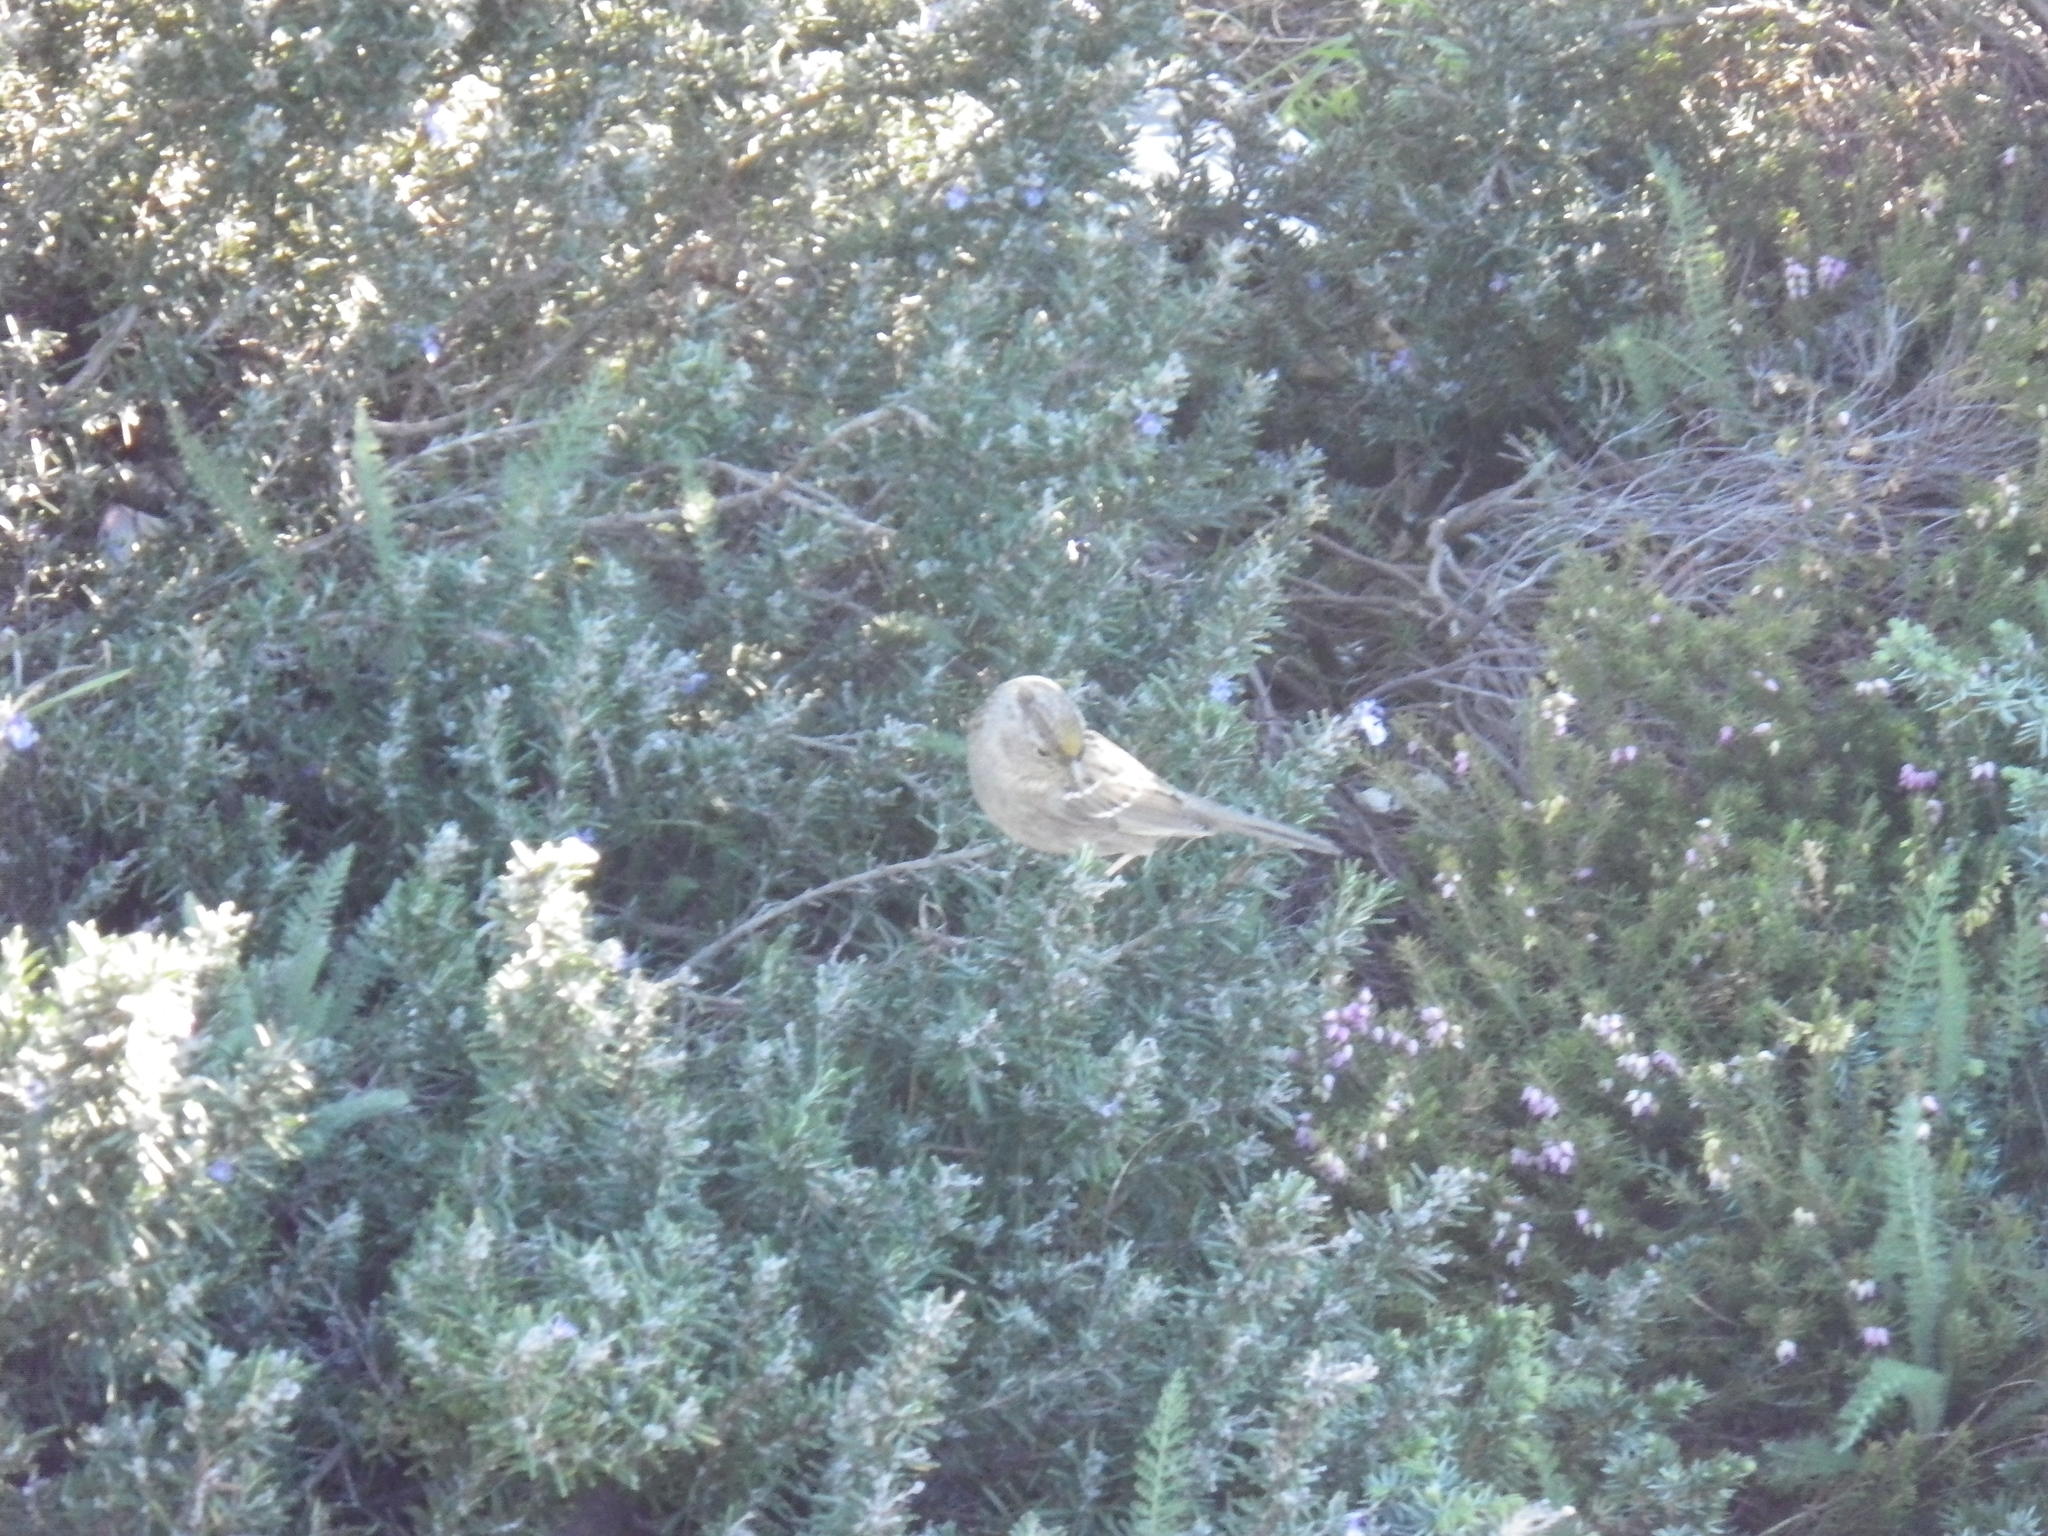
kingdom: Animalia
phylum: Chordata
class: Aves
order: Passeriformes
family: Passerellidae
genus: Zonotrichia
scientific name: Zonotrichia atricapilla
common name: Golden-crowned sparrow
